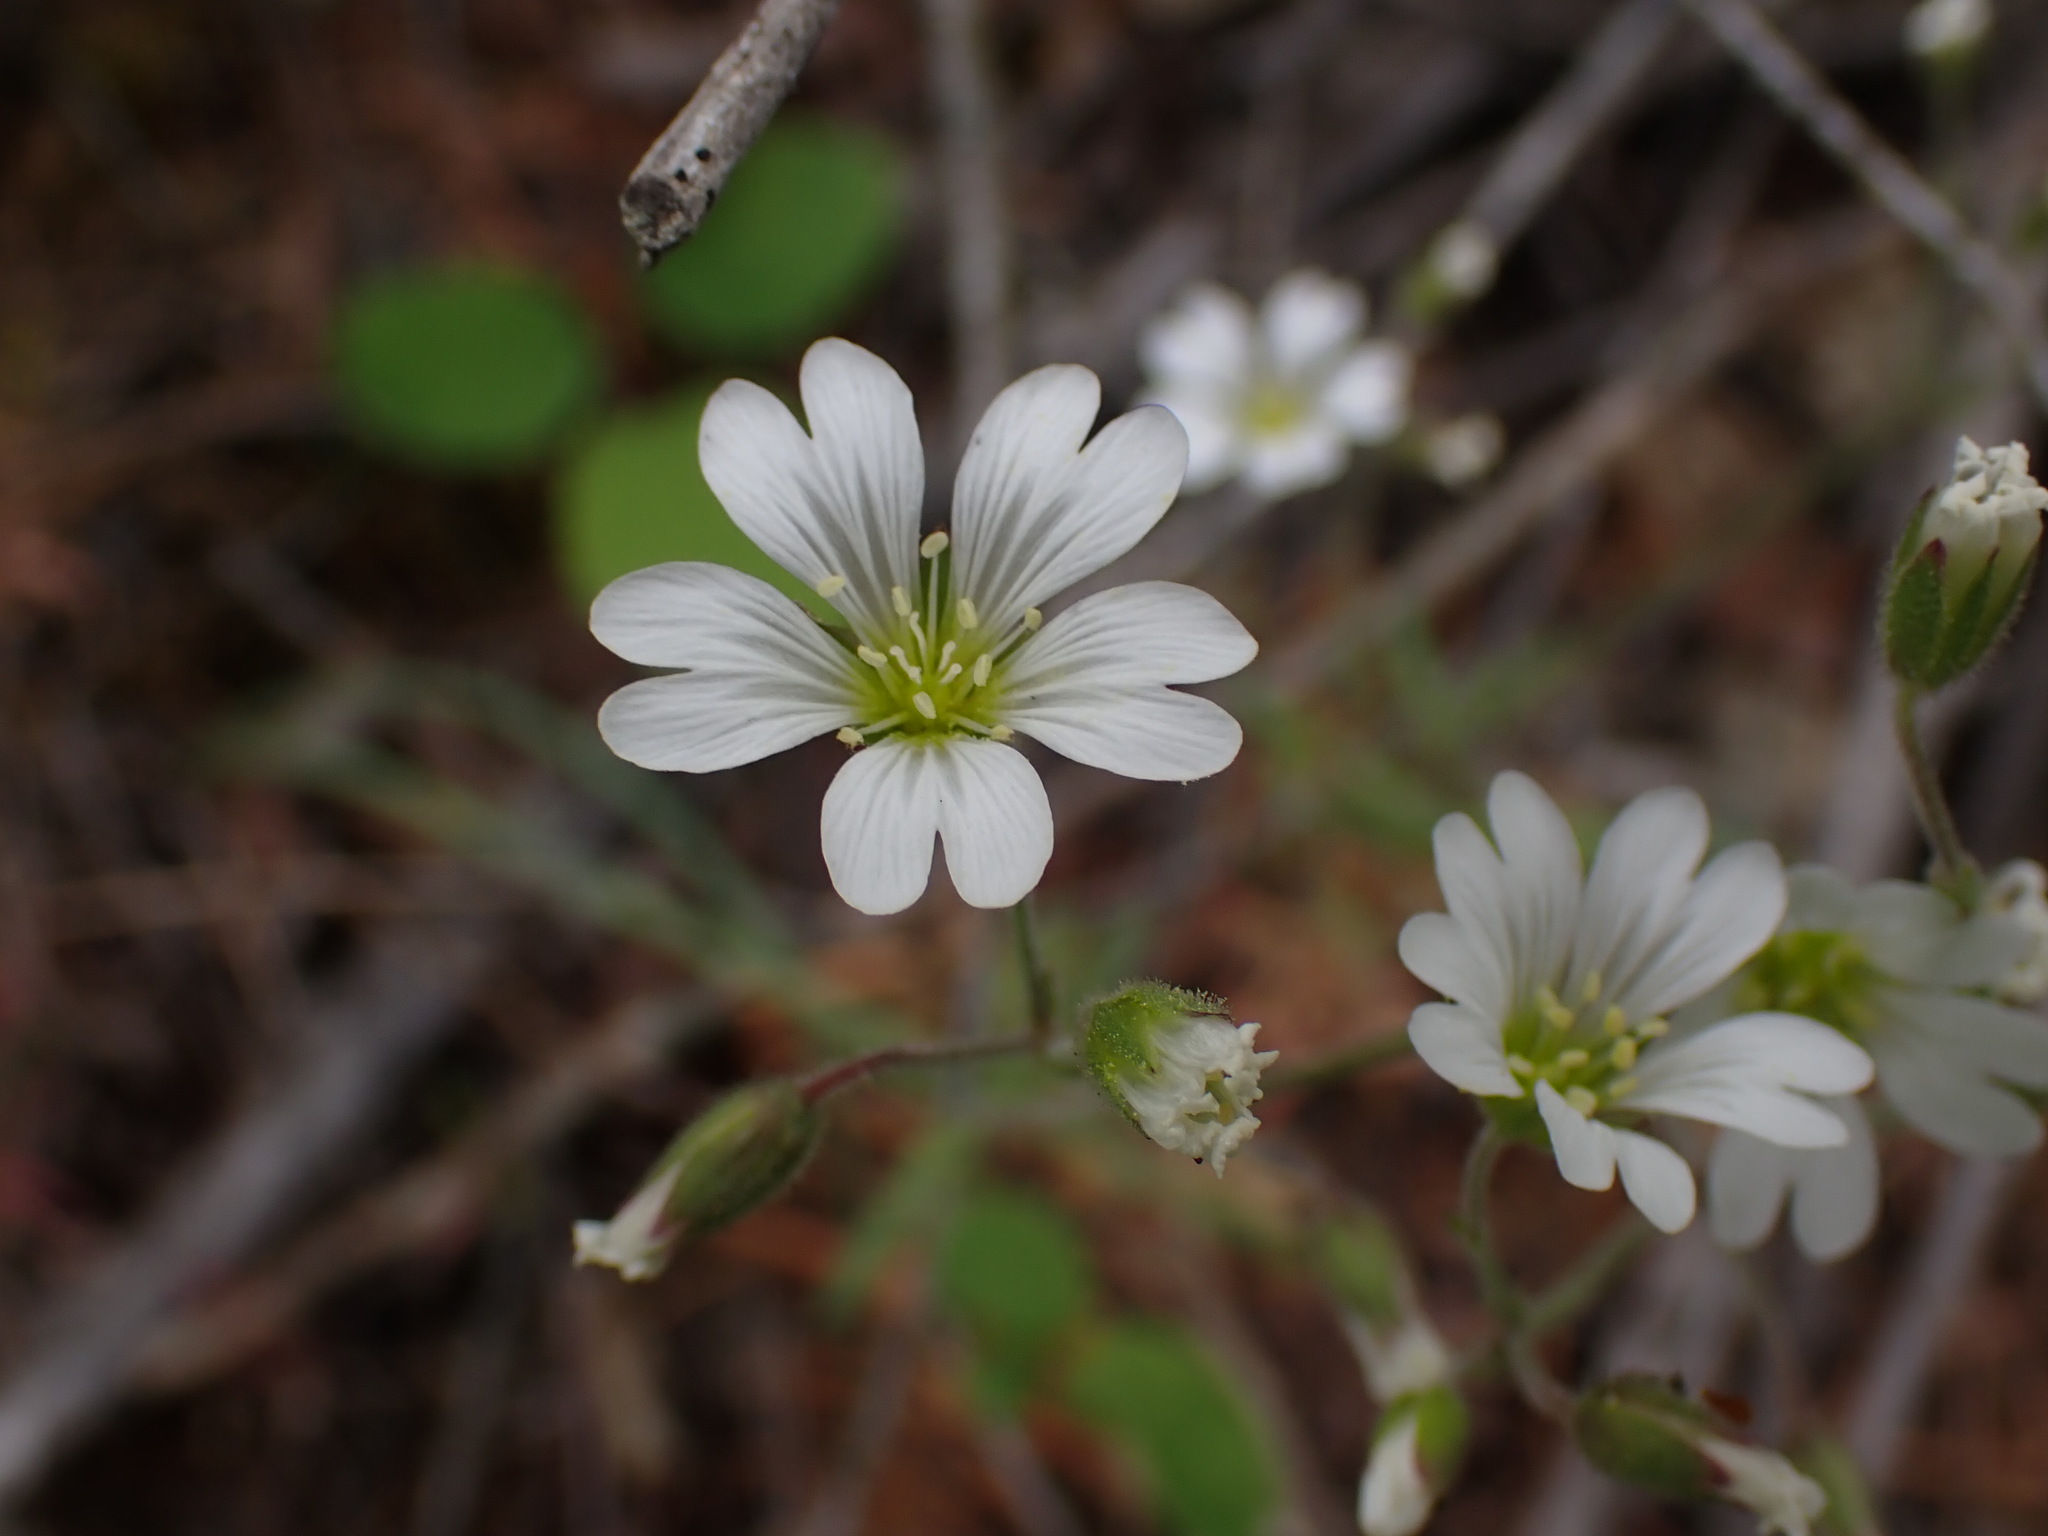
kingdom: Plantae
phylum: Tracheophyta
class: Magnoliopsida
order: Caryophyllales
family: Caryophyllaceae
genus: Cerastium
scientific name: Cerastium arvense
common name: Field mouse-ear
